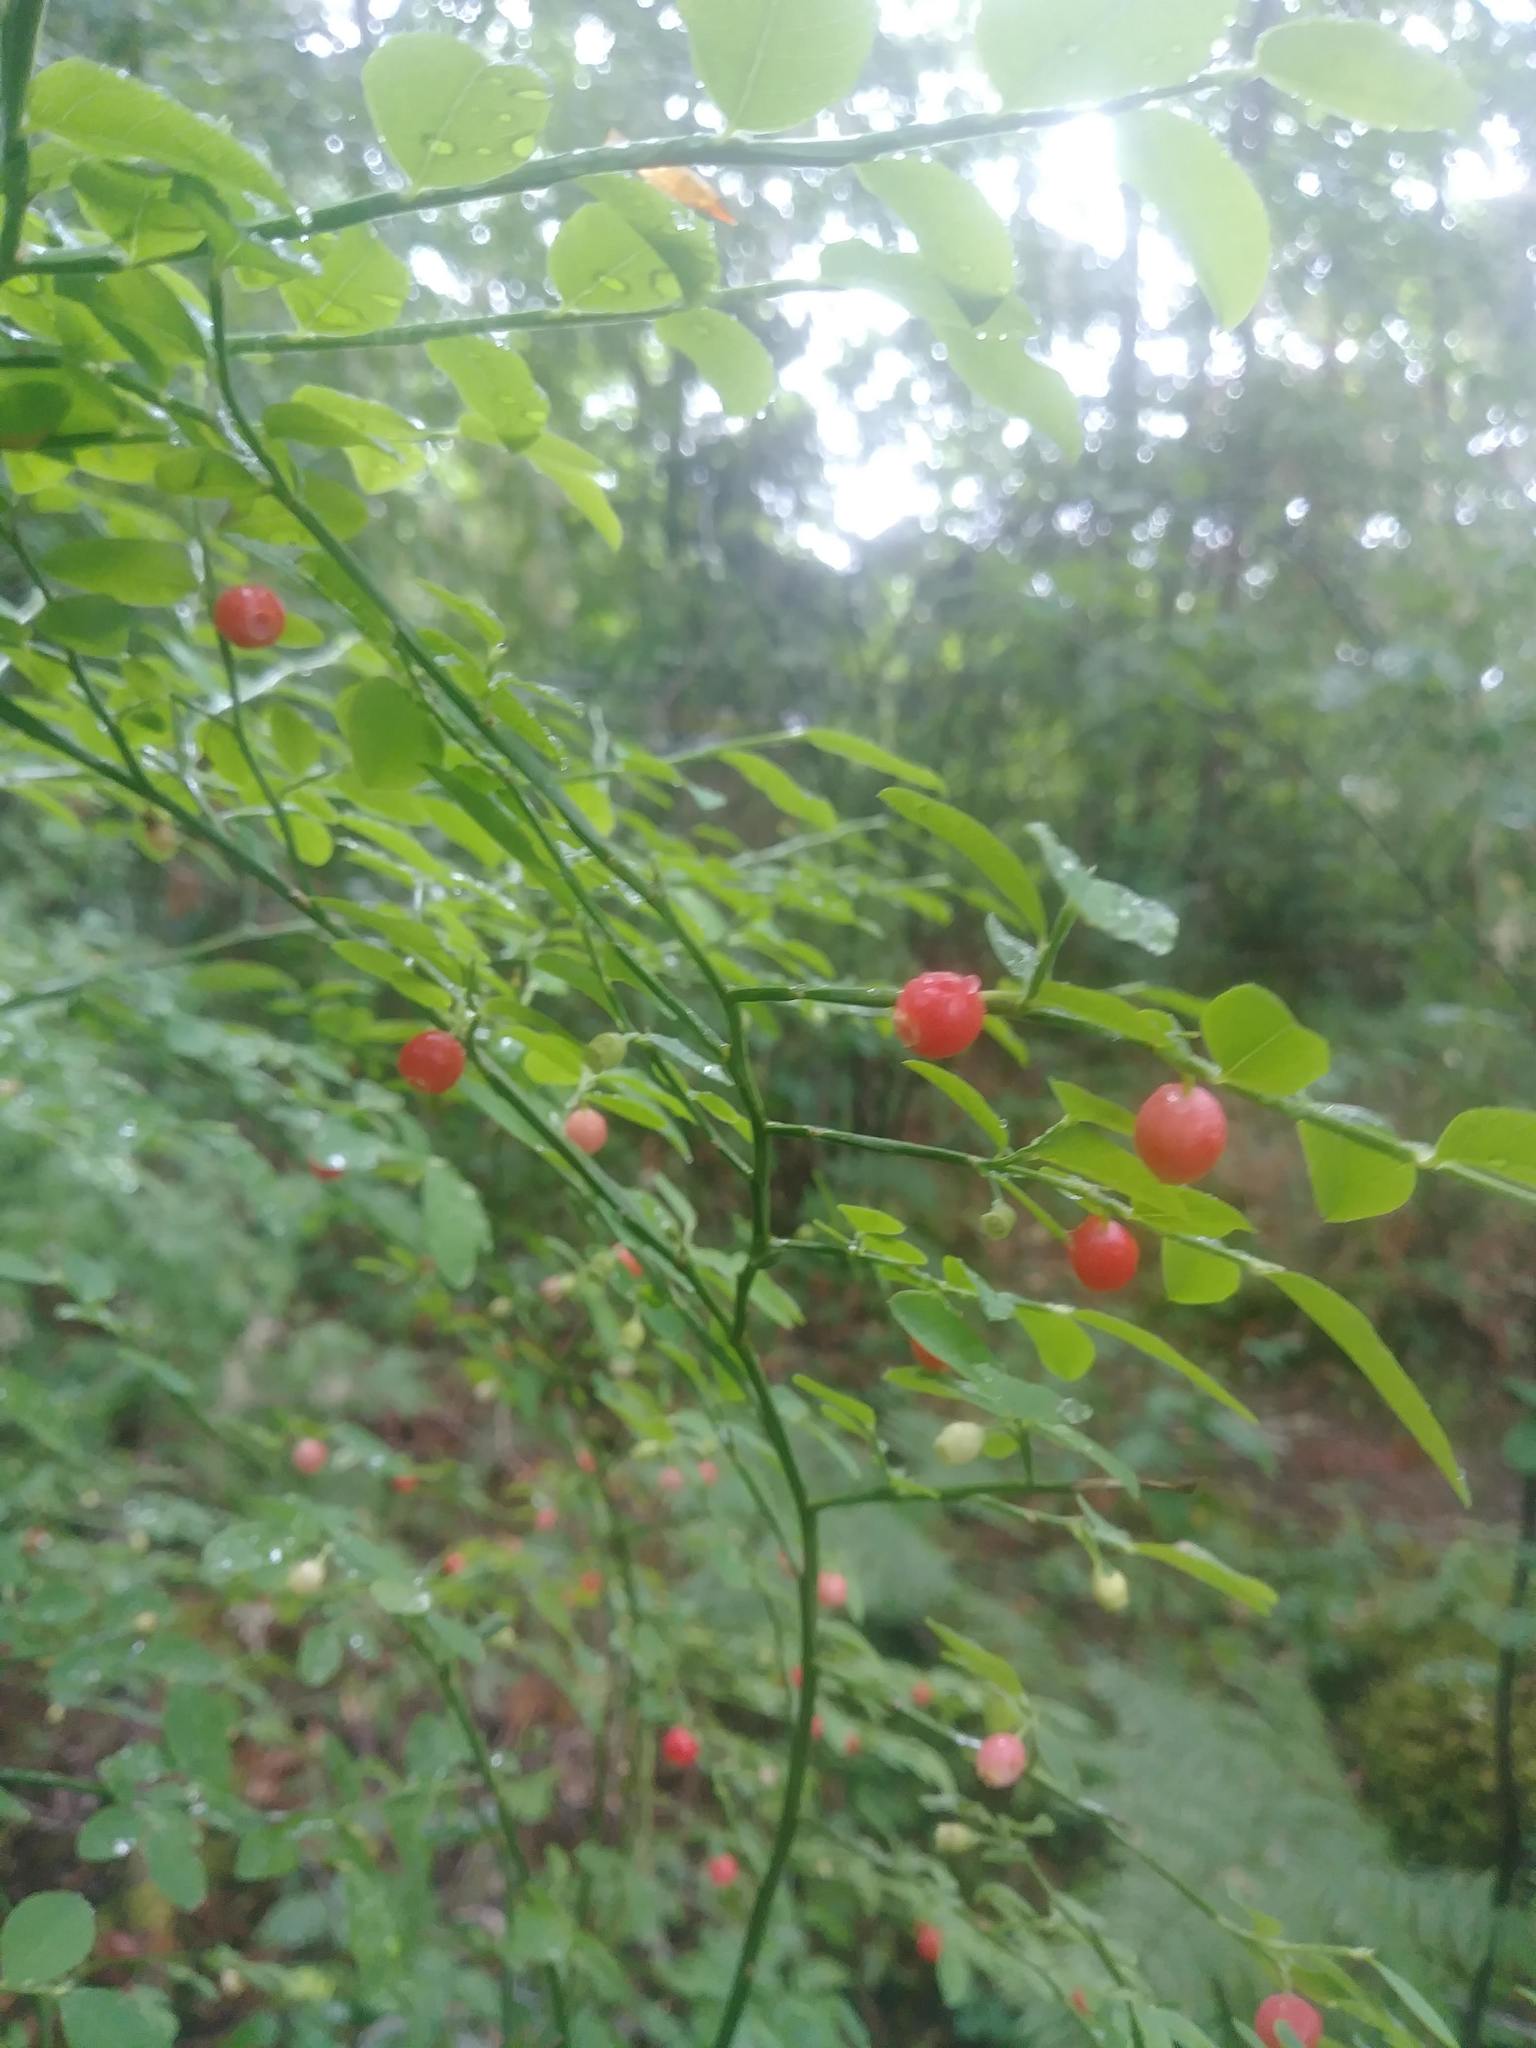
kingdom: Plantae
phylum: Tracheophyta
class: Magnoliopsida
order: Ericales
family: Ericaceae
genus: Vaccinium
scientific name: Vaccinium parvifolium
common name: Red-huckleberry
